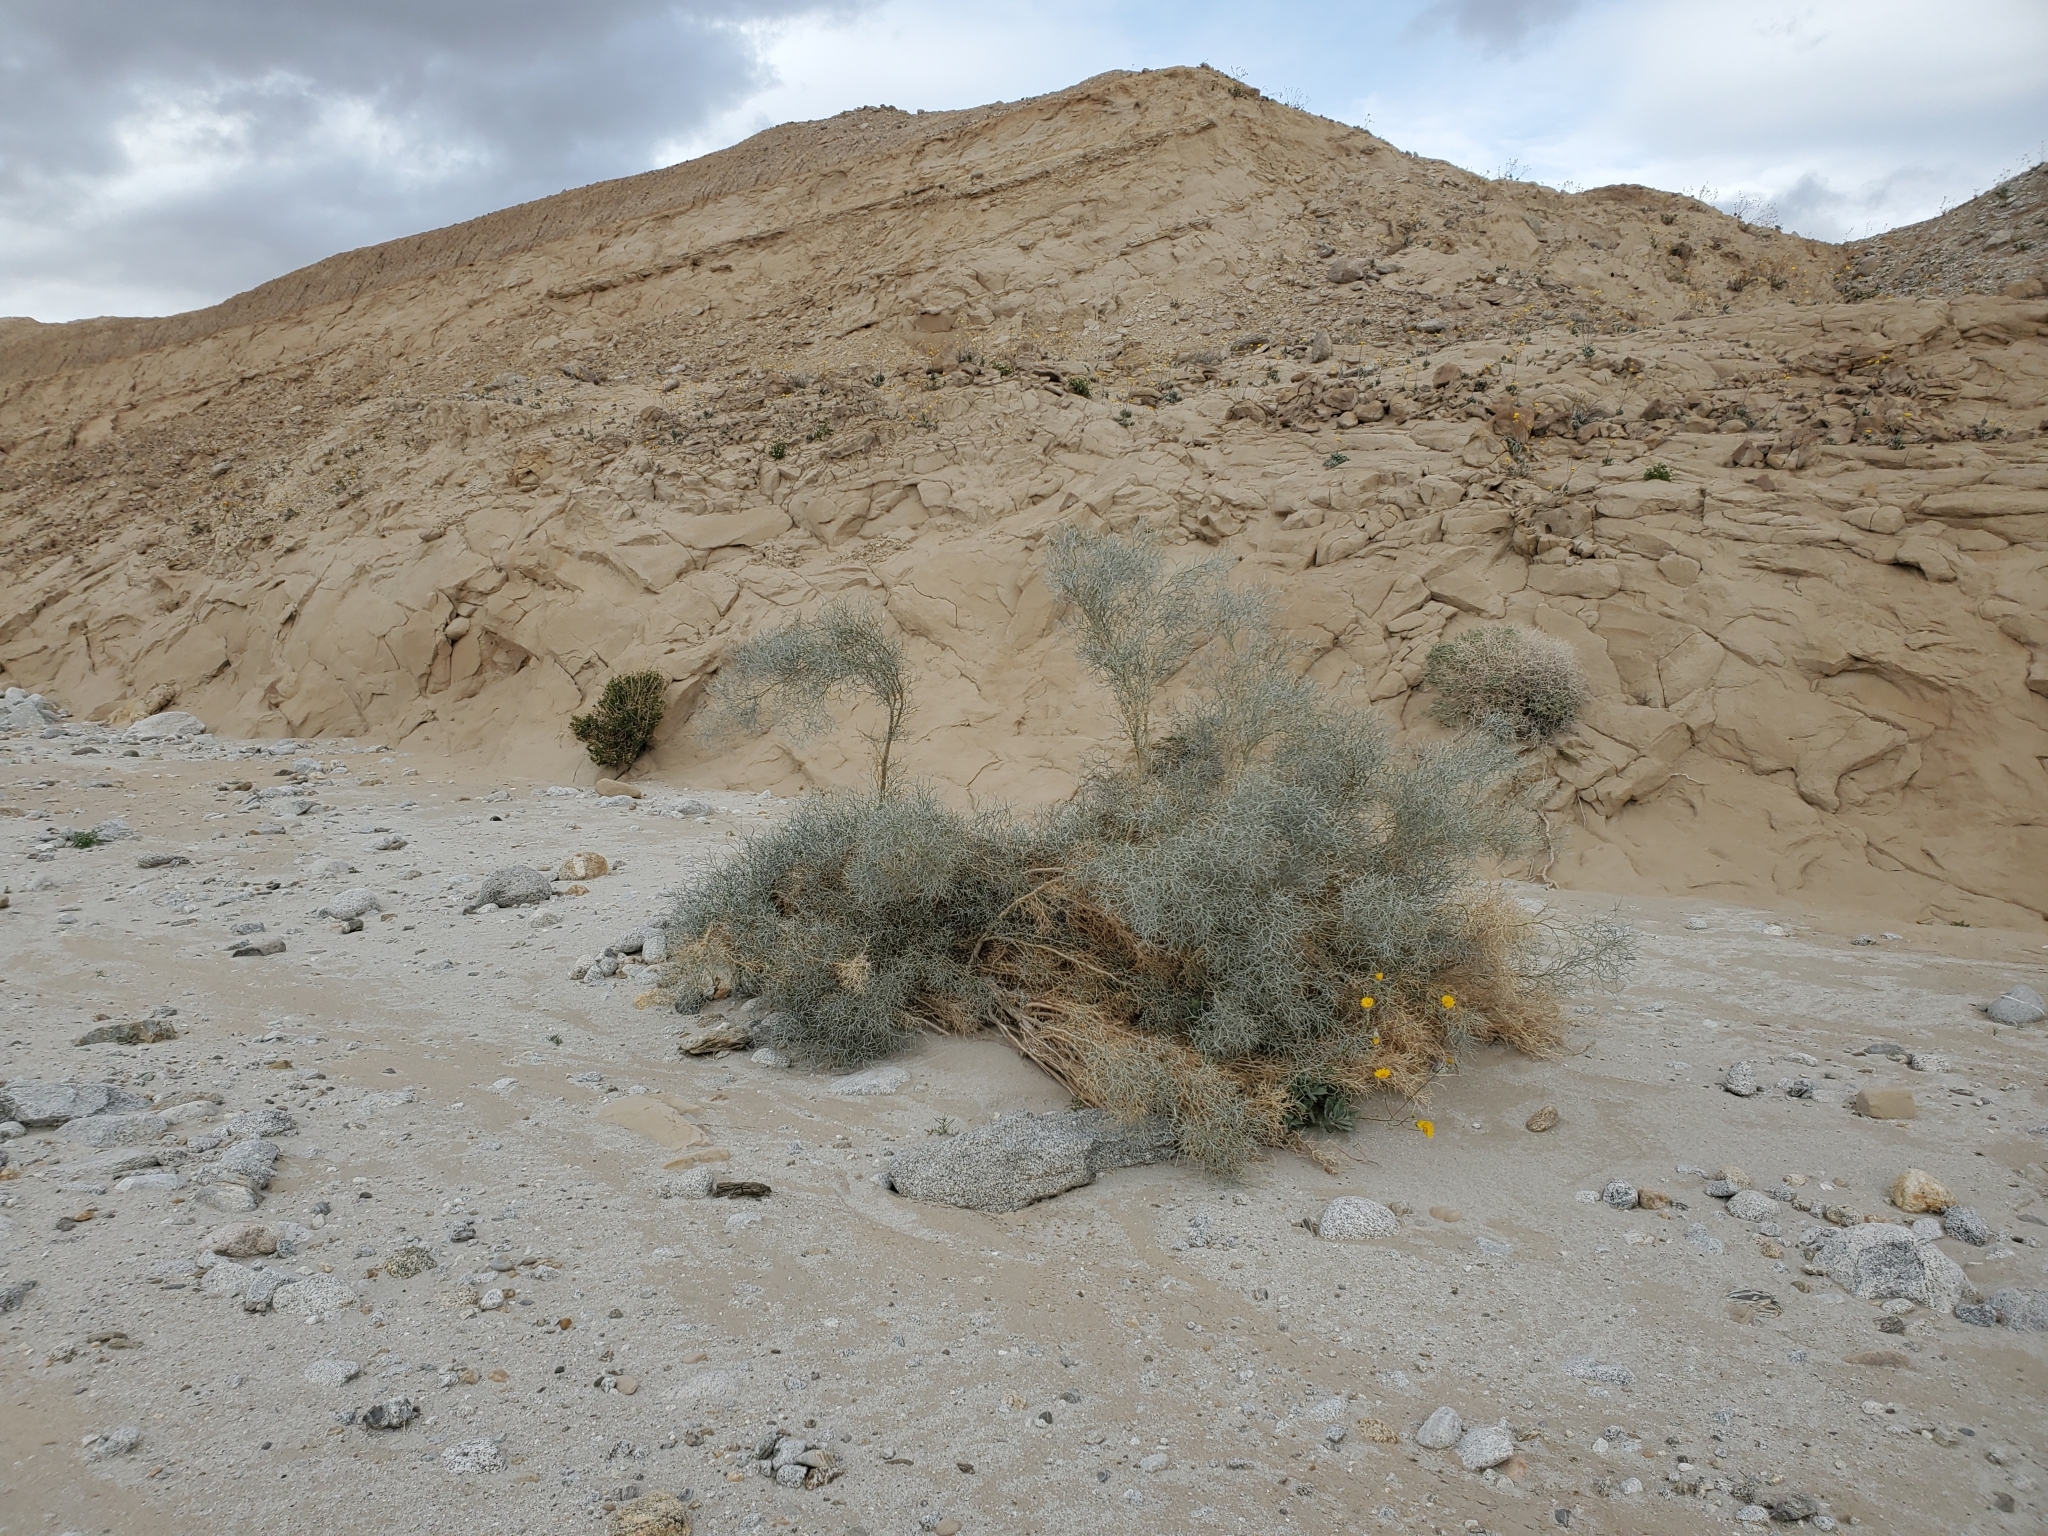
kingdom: Plantae
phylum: Tracheophyta
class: Magnoliopsida
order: Asterales
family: Asteraceae
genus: Geraea
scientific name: Geraea canescens
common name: Desert-gold
